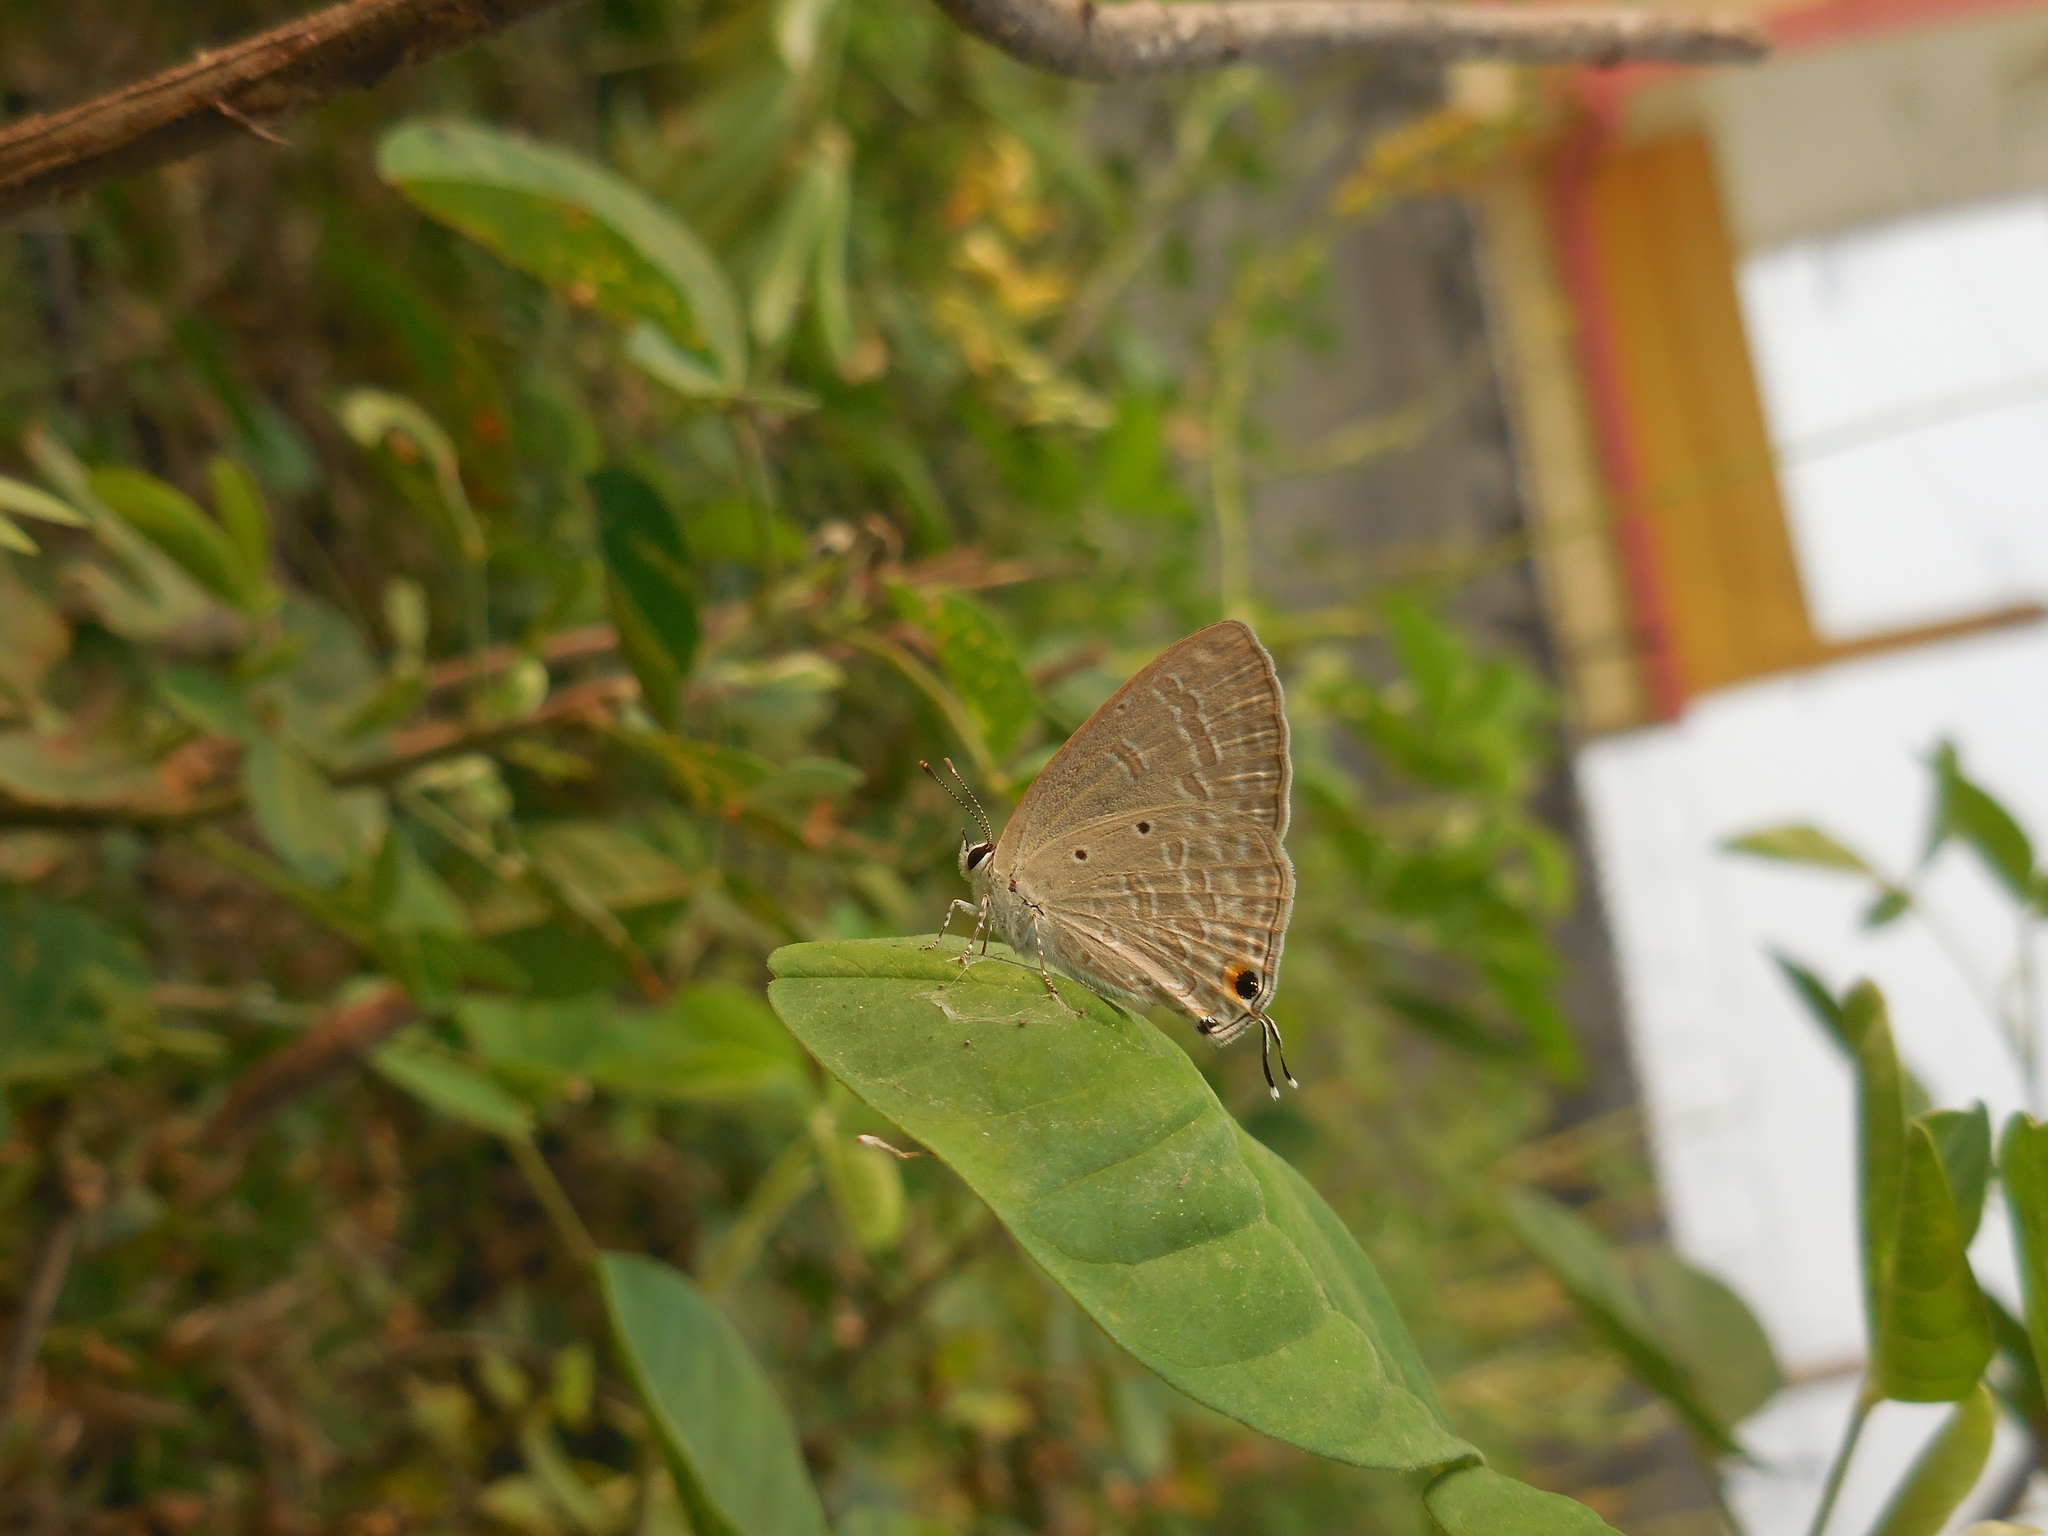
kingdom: Animalia
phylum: Arthropoda
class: Insecta
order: Lepidoptera
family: Lycaenidae
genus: Catochrysops
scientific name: Catochrysops strabo
